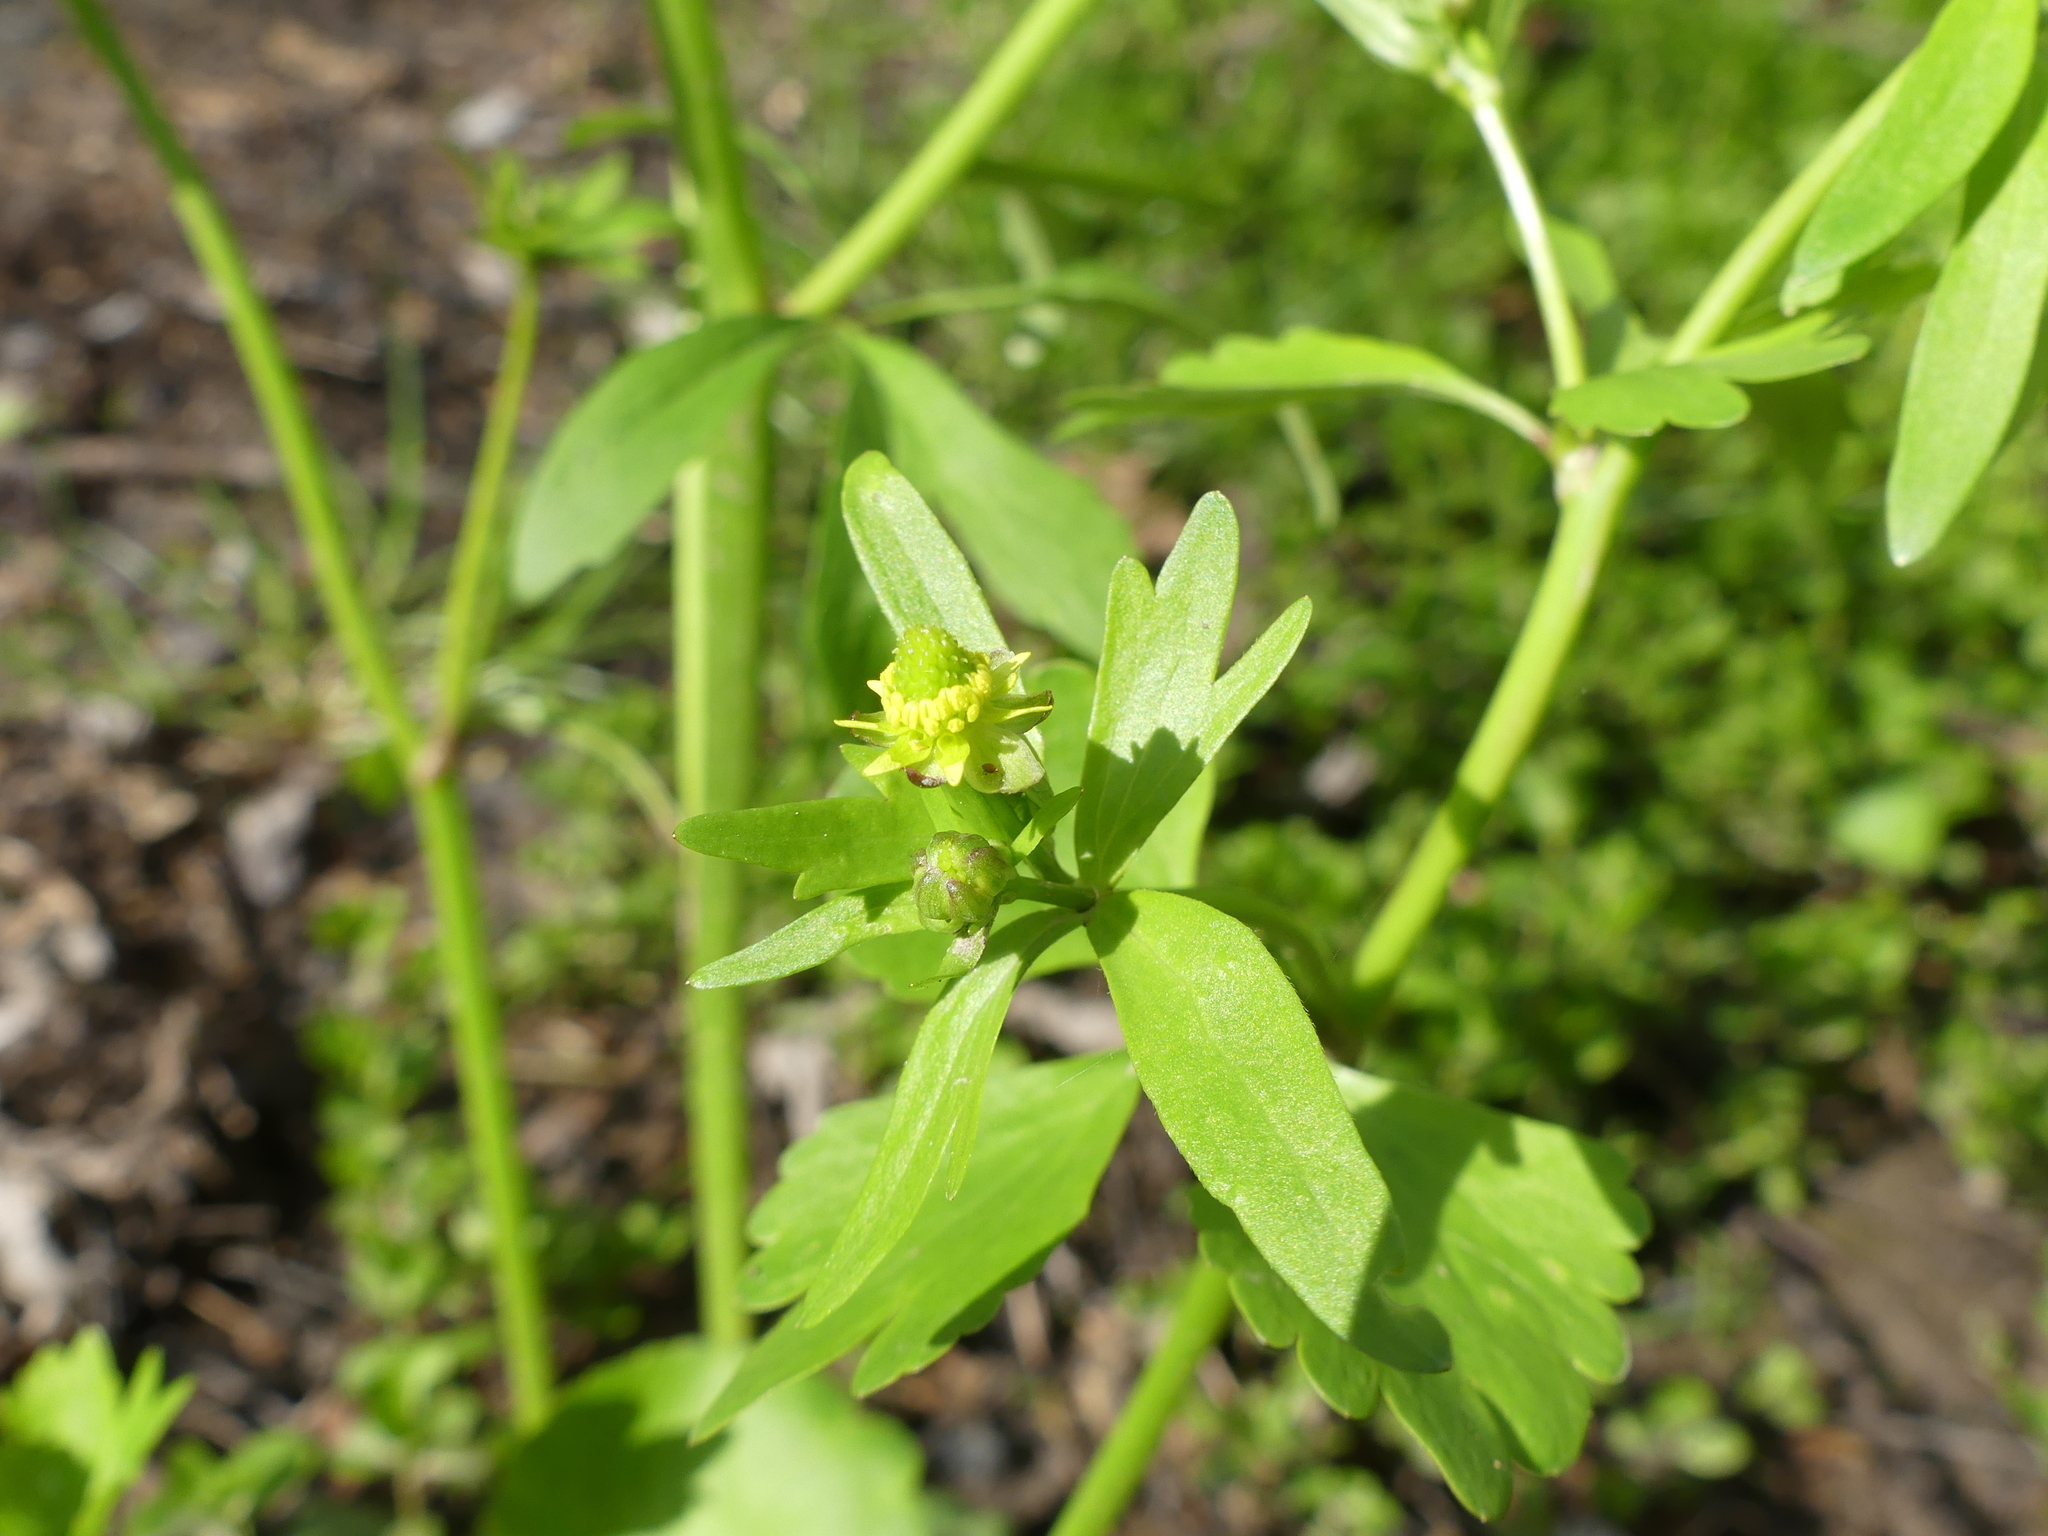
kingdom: Plantae
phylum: Tracheophyta
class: Magnoliopsida
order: Ranunculales
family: Ranunculaceae
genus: Ranunculus
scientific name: Ranunculus abortivus
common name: Early wood buttercup
